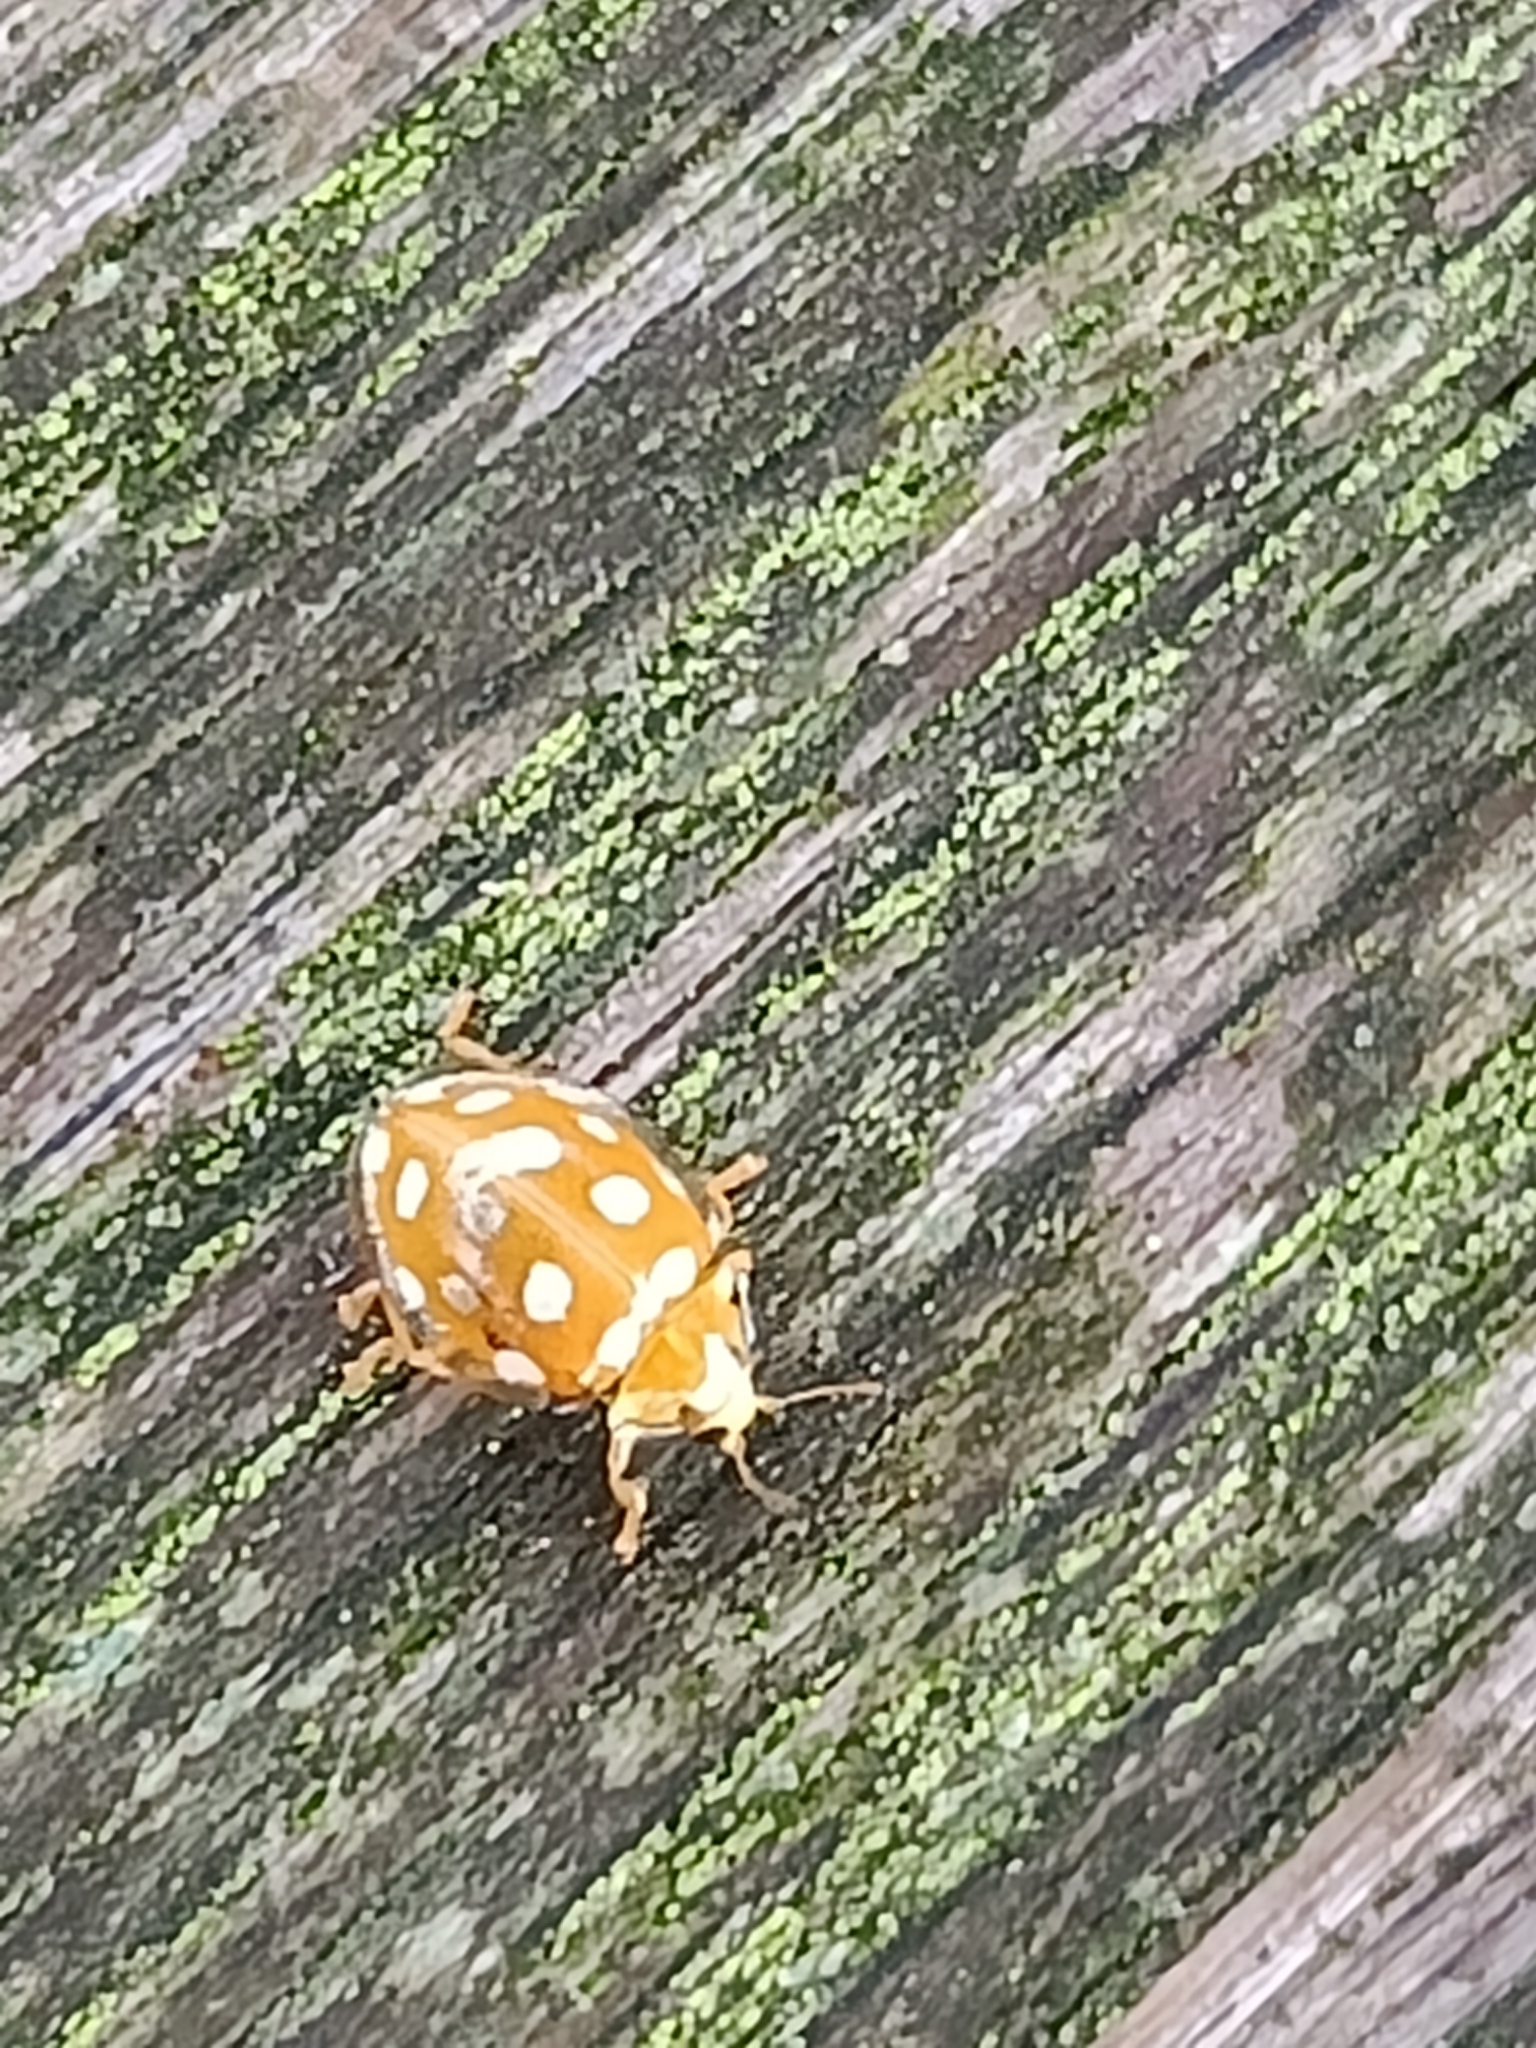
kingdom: Animalia
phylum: Arthropoda
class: Insecta
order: Coleoptera
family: Coccinellidae
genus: Halyzia
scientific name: Halyzia sedecimguttata
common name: Orange ladybird
